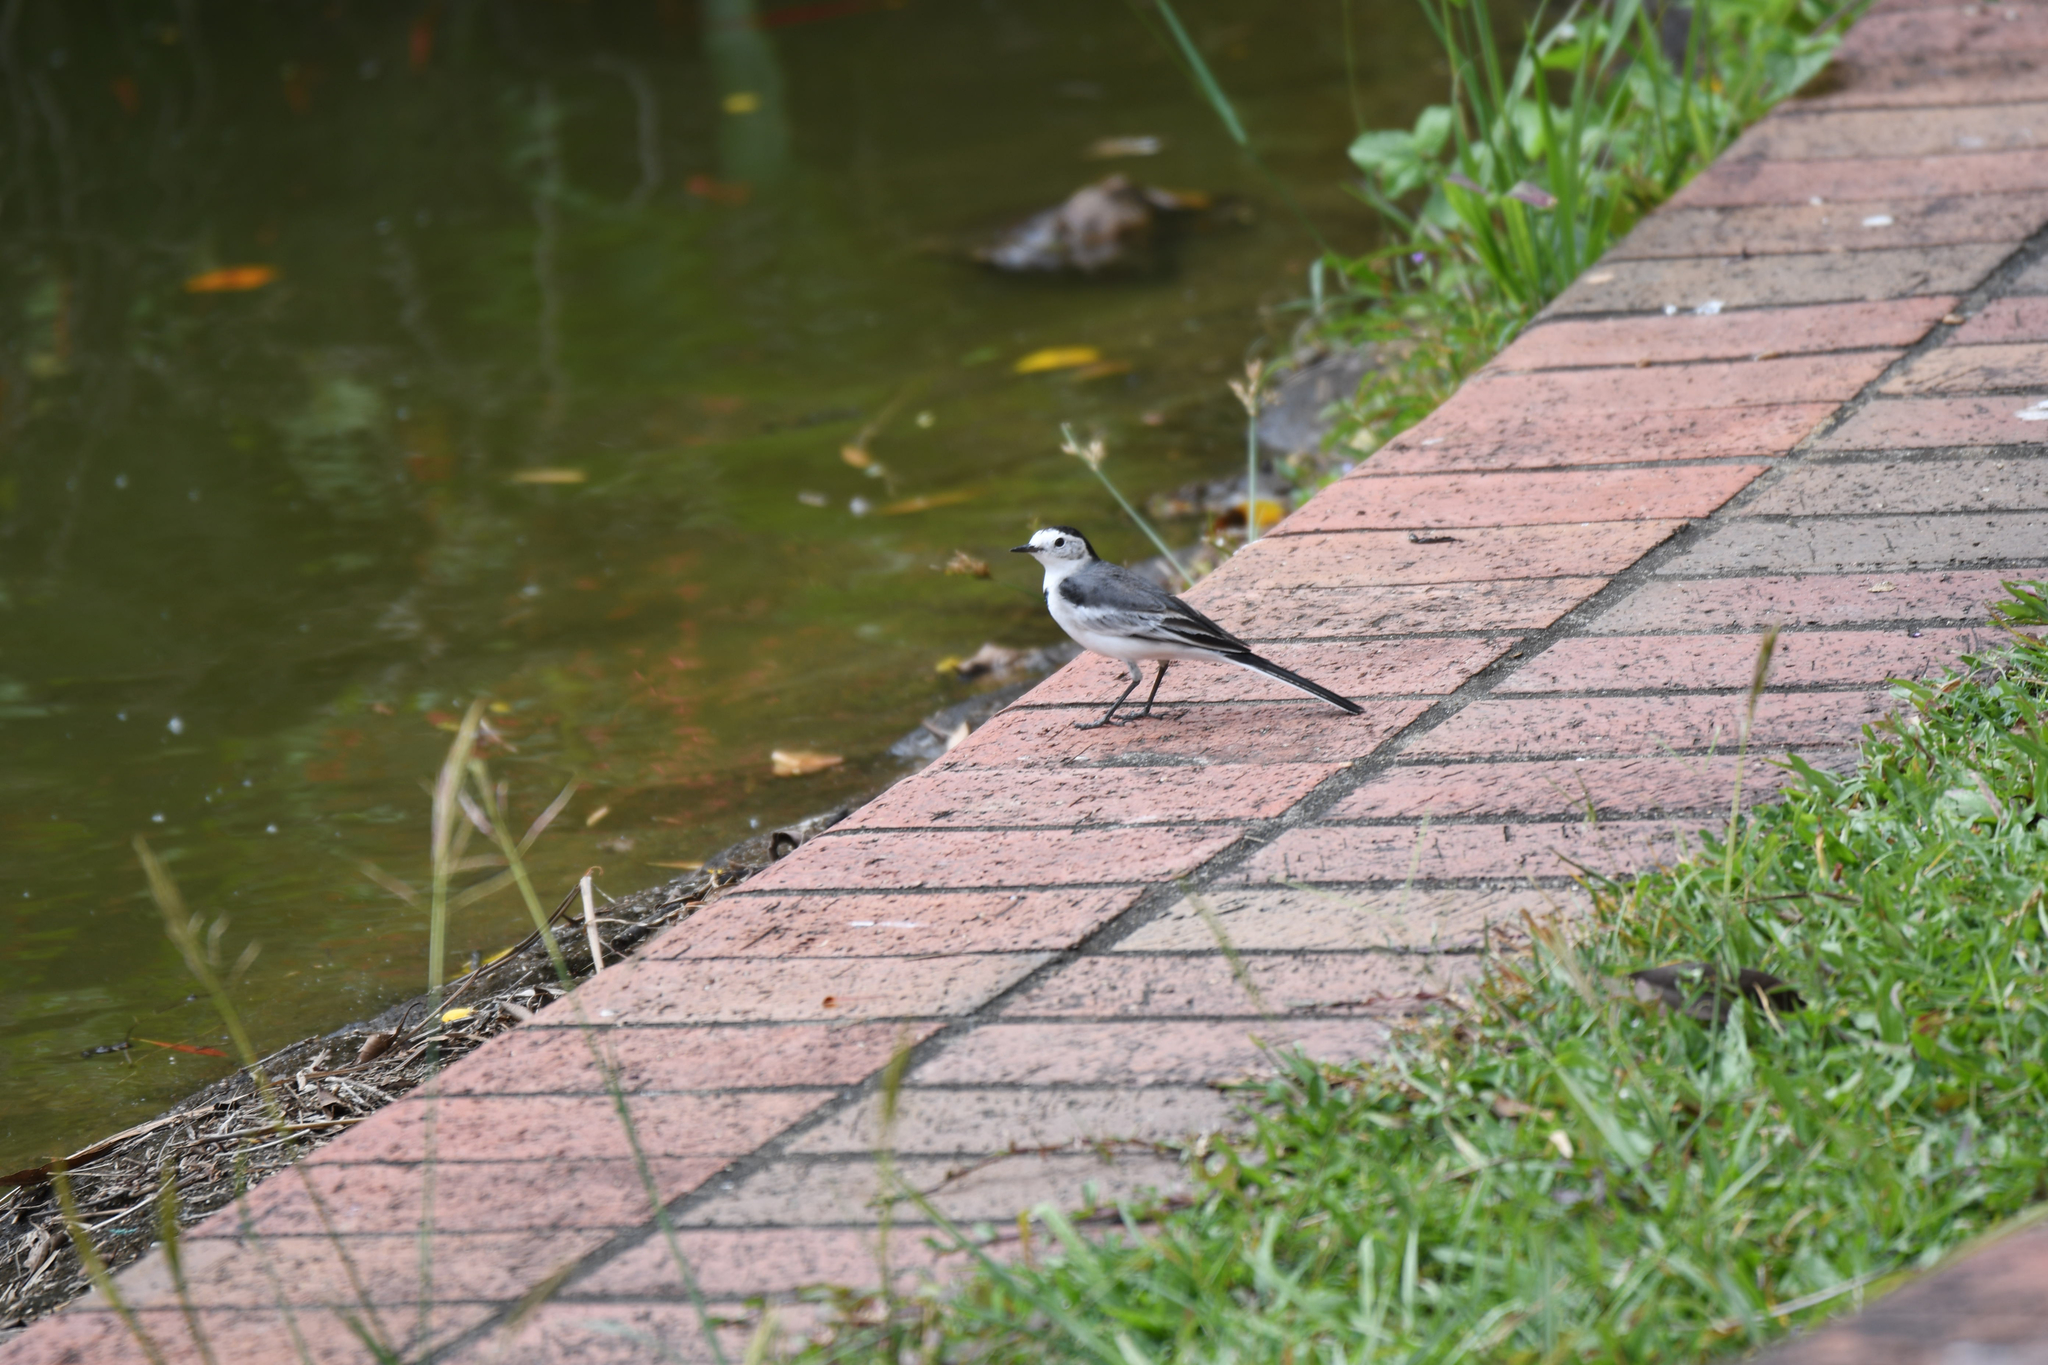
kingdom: Animalia
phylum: Chordata
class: Aves
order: Passeriformes
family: Motacillidae
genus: Motacilla
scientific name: Motacilla alba
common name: White wagtail
